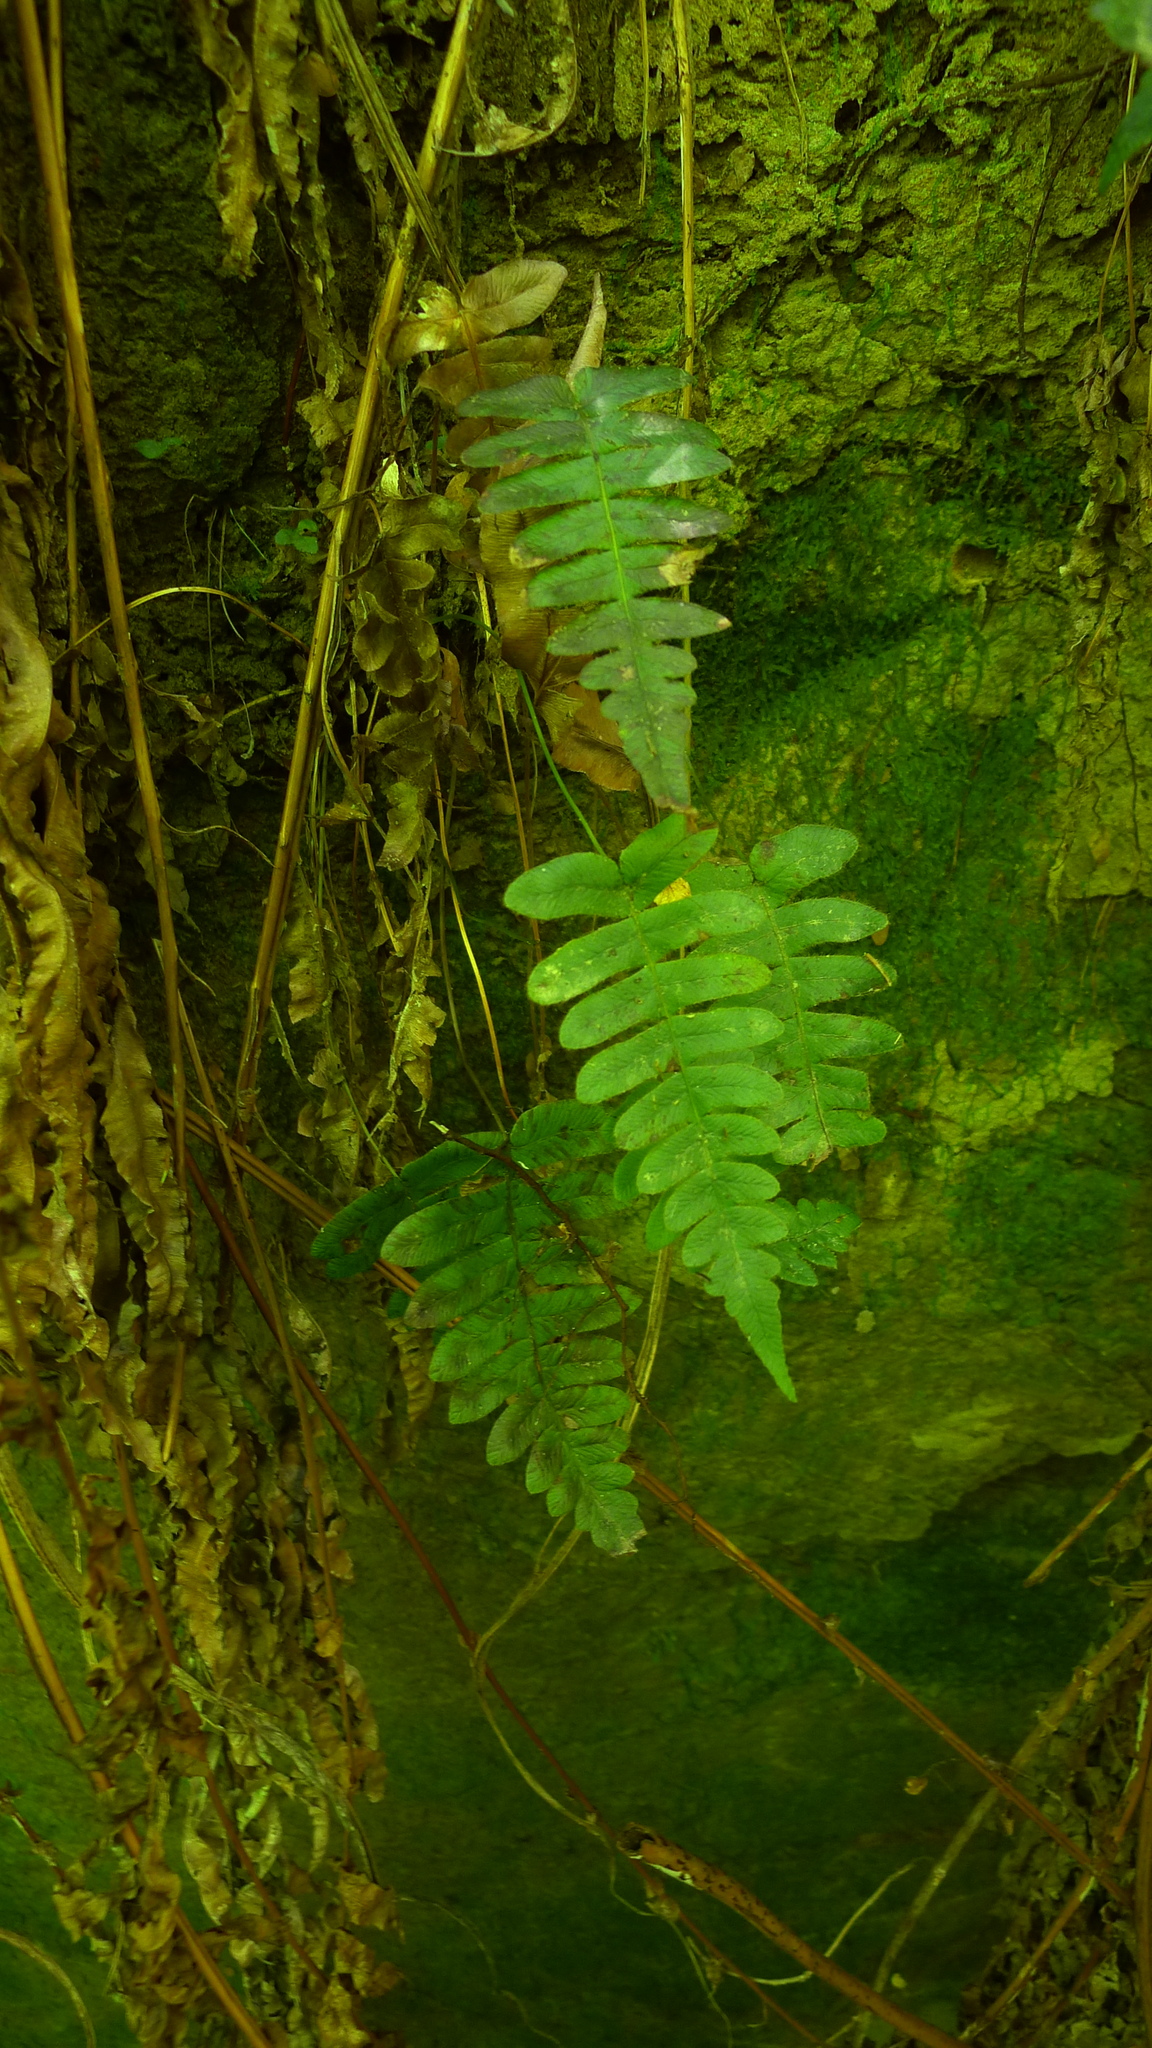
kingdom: Plantae
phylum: Tracheophyta
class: Polypodiopsida
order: Polypodiales
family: Blechnaceae
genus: Cranfillia
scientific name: Cranfillia deltoides
